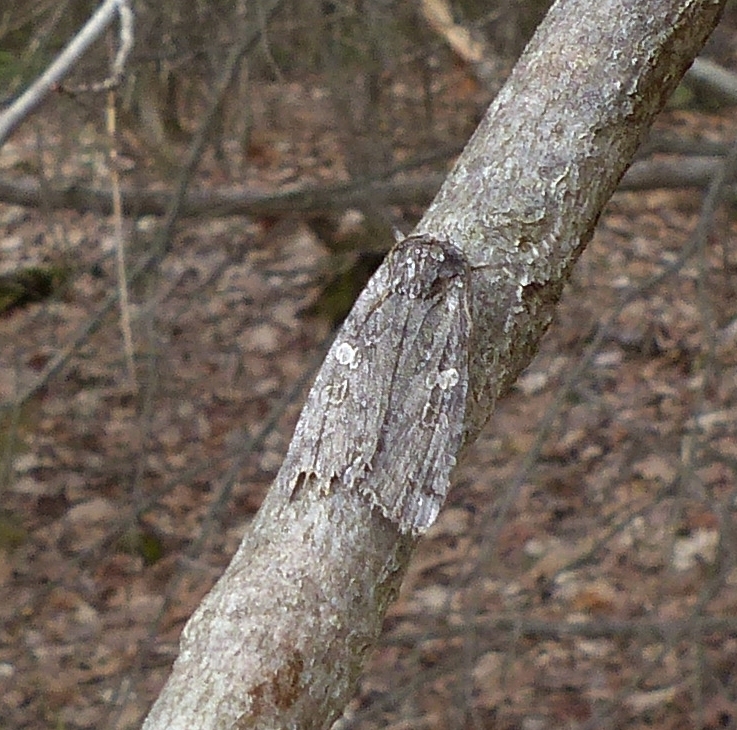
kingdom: Animalia
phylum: Arthropoda
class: Insecta
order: Lepidoptera
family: Noctuidae
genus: Lithophane
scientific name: Lithophane laticinerea
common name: Broad ashen pinion
